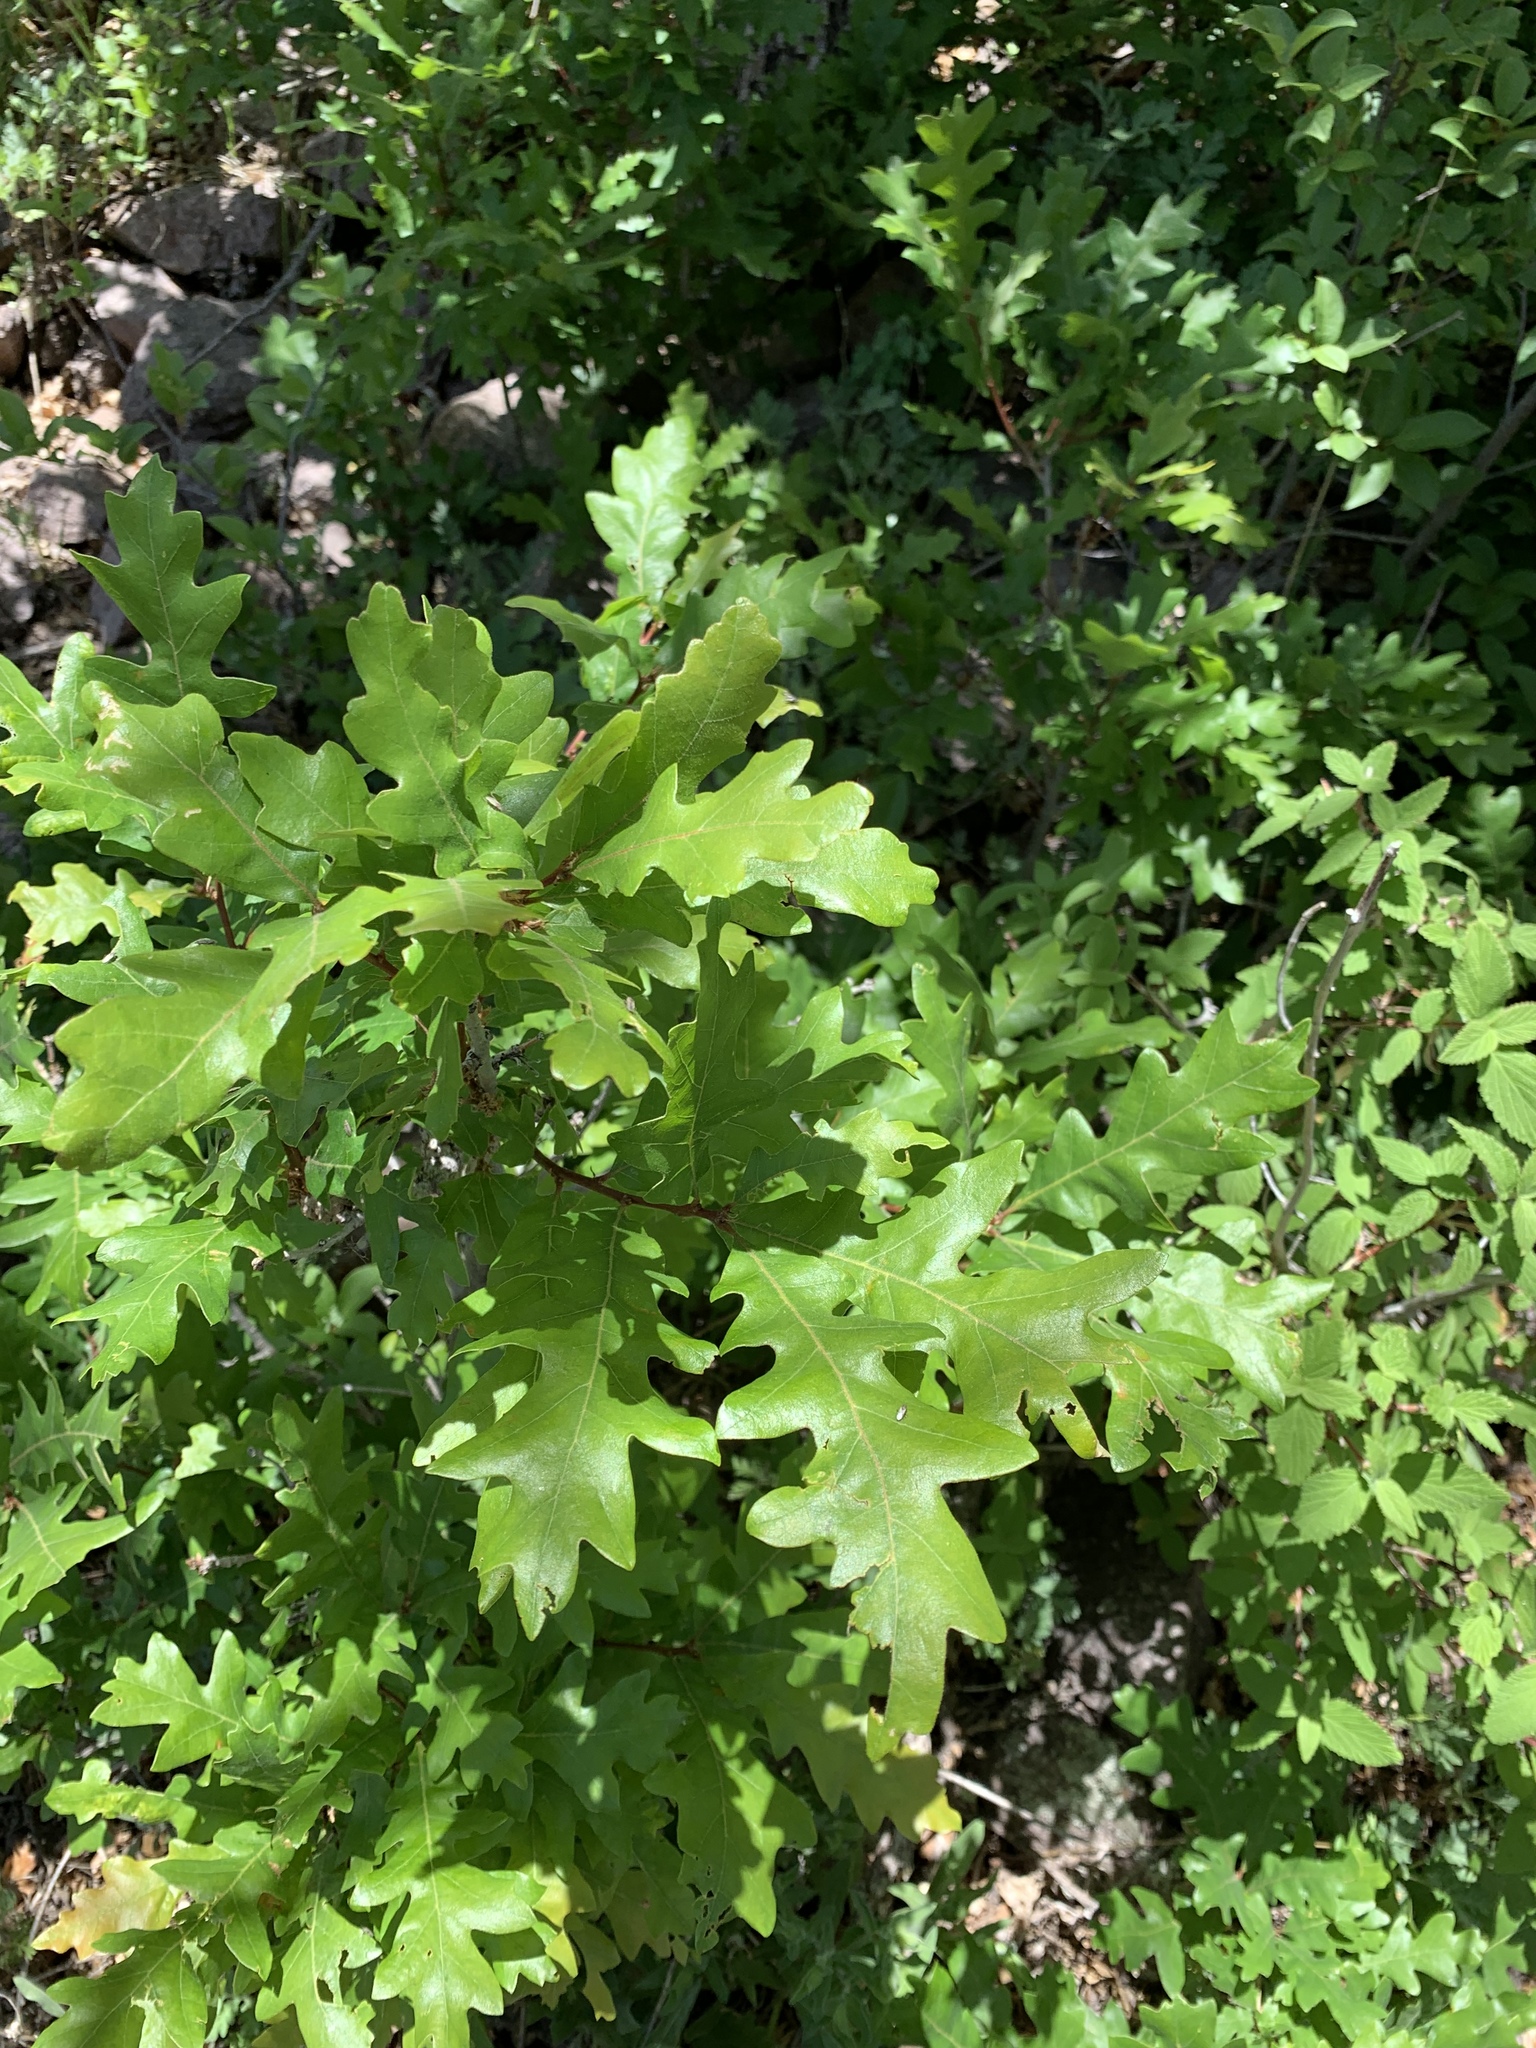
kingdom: Plantae
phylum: Tracheophyta
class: Magnoliopsida
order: Fagales
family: Fagaceae
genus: Quercus
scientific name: Quercus gambelii
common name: Gambel oak
